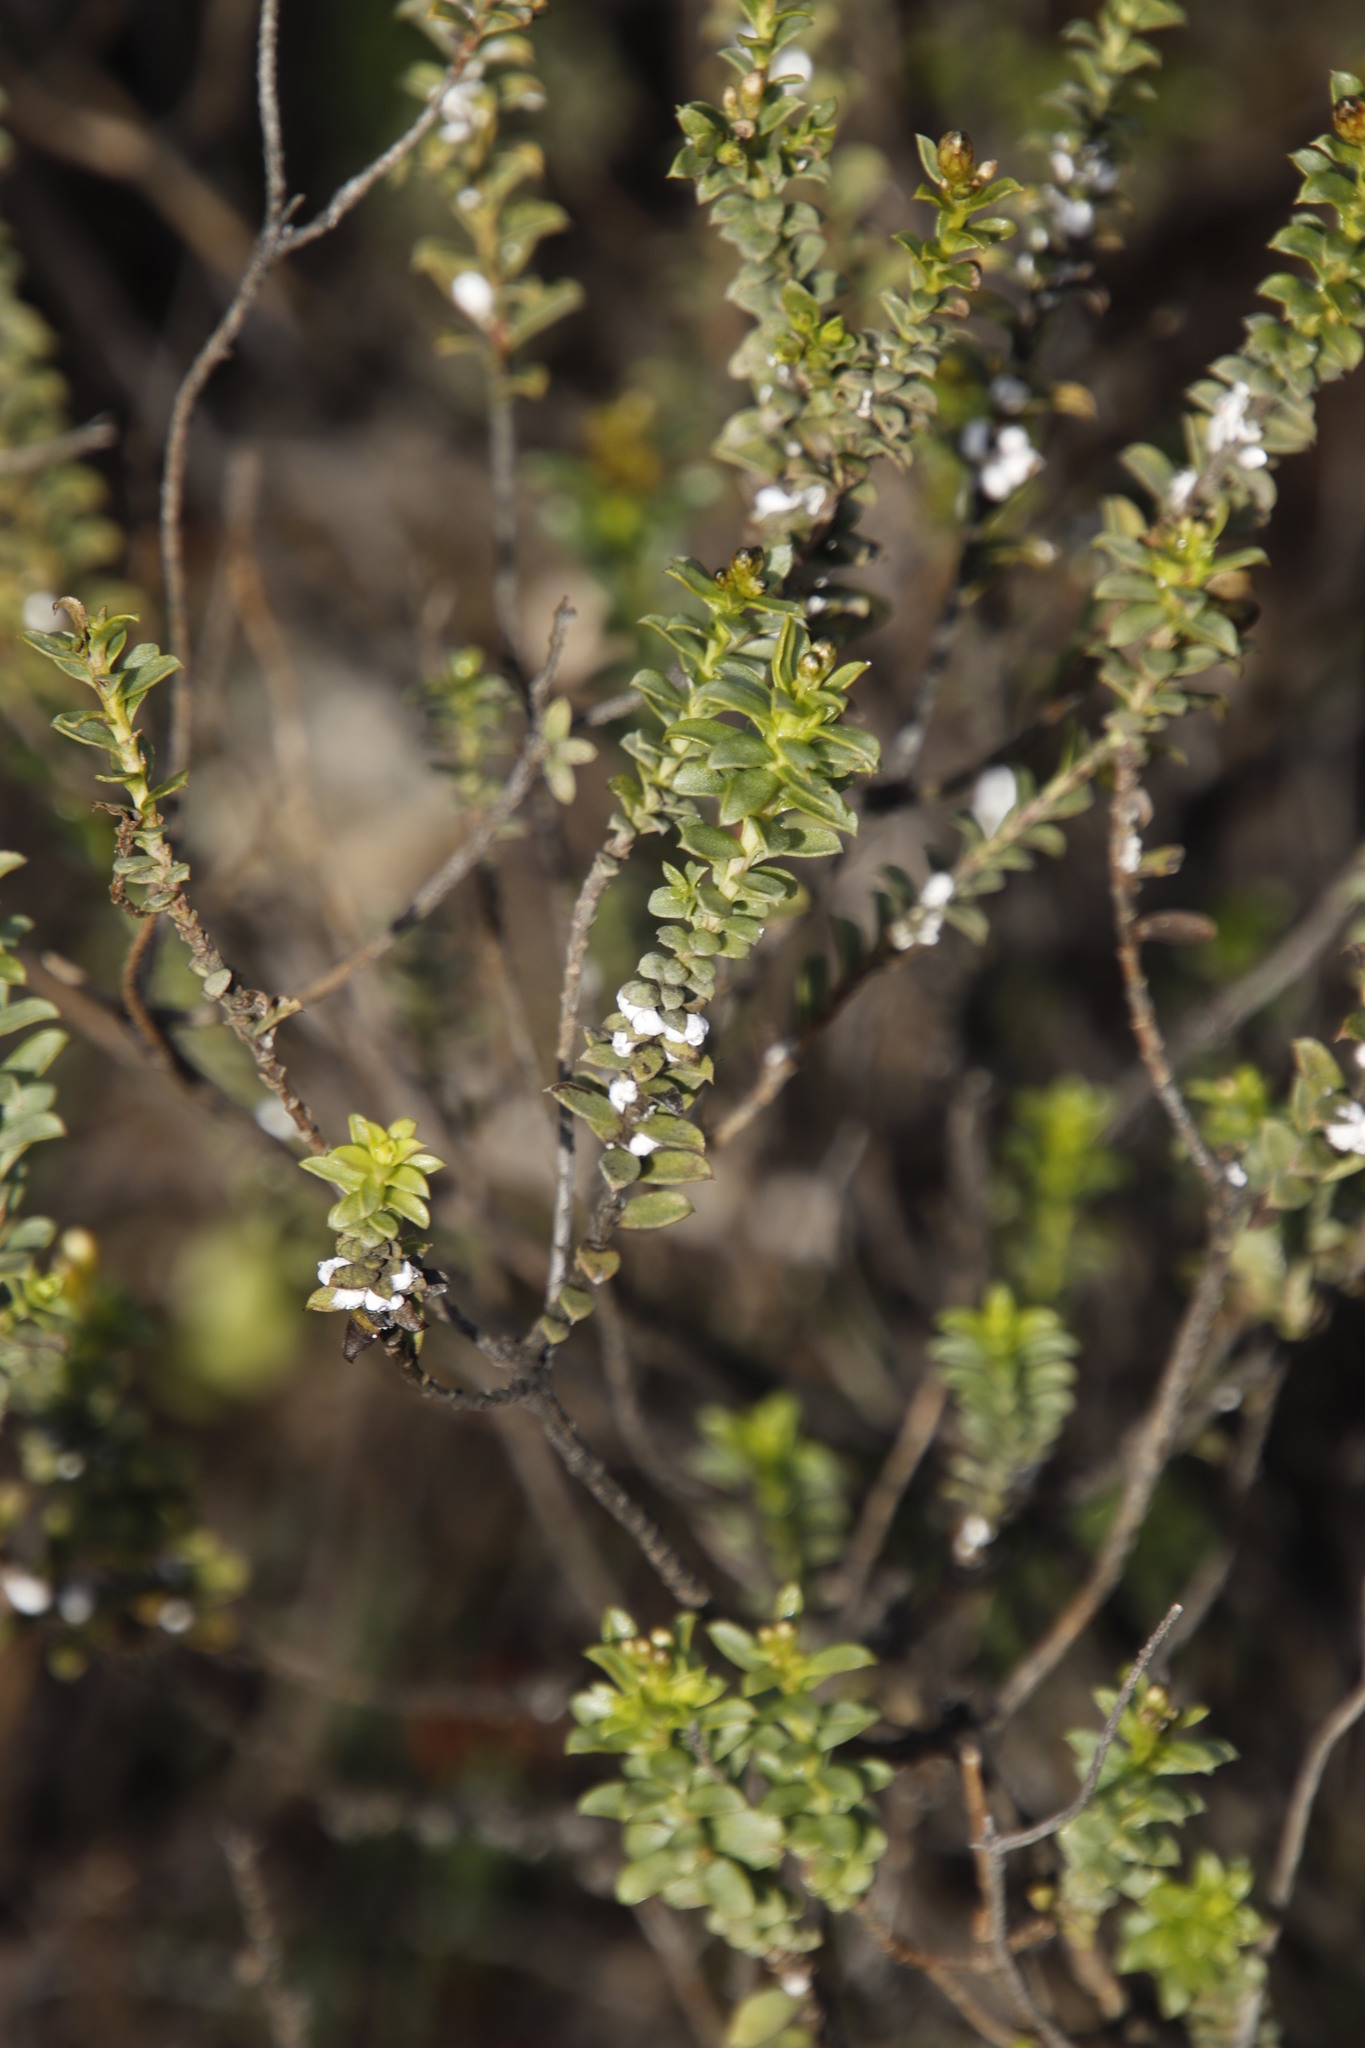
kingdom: Plantae
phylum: Tracheophyta
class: Magnoliopsida
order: Asterales
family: Asteraceae
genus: Oedera
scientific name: Oedera squarrosa
